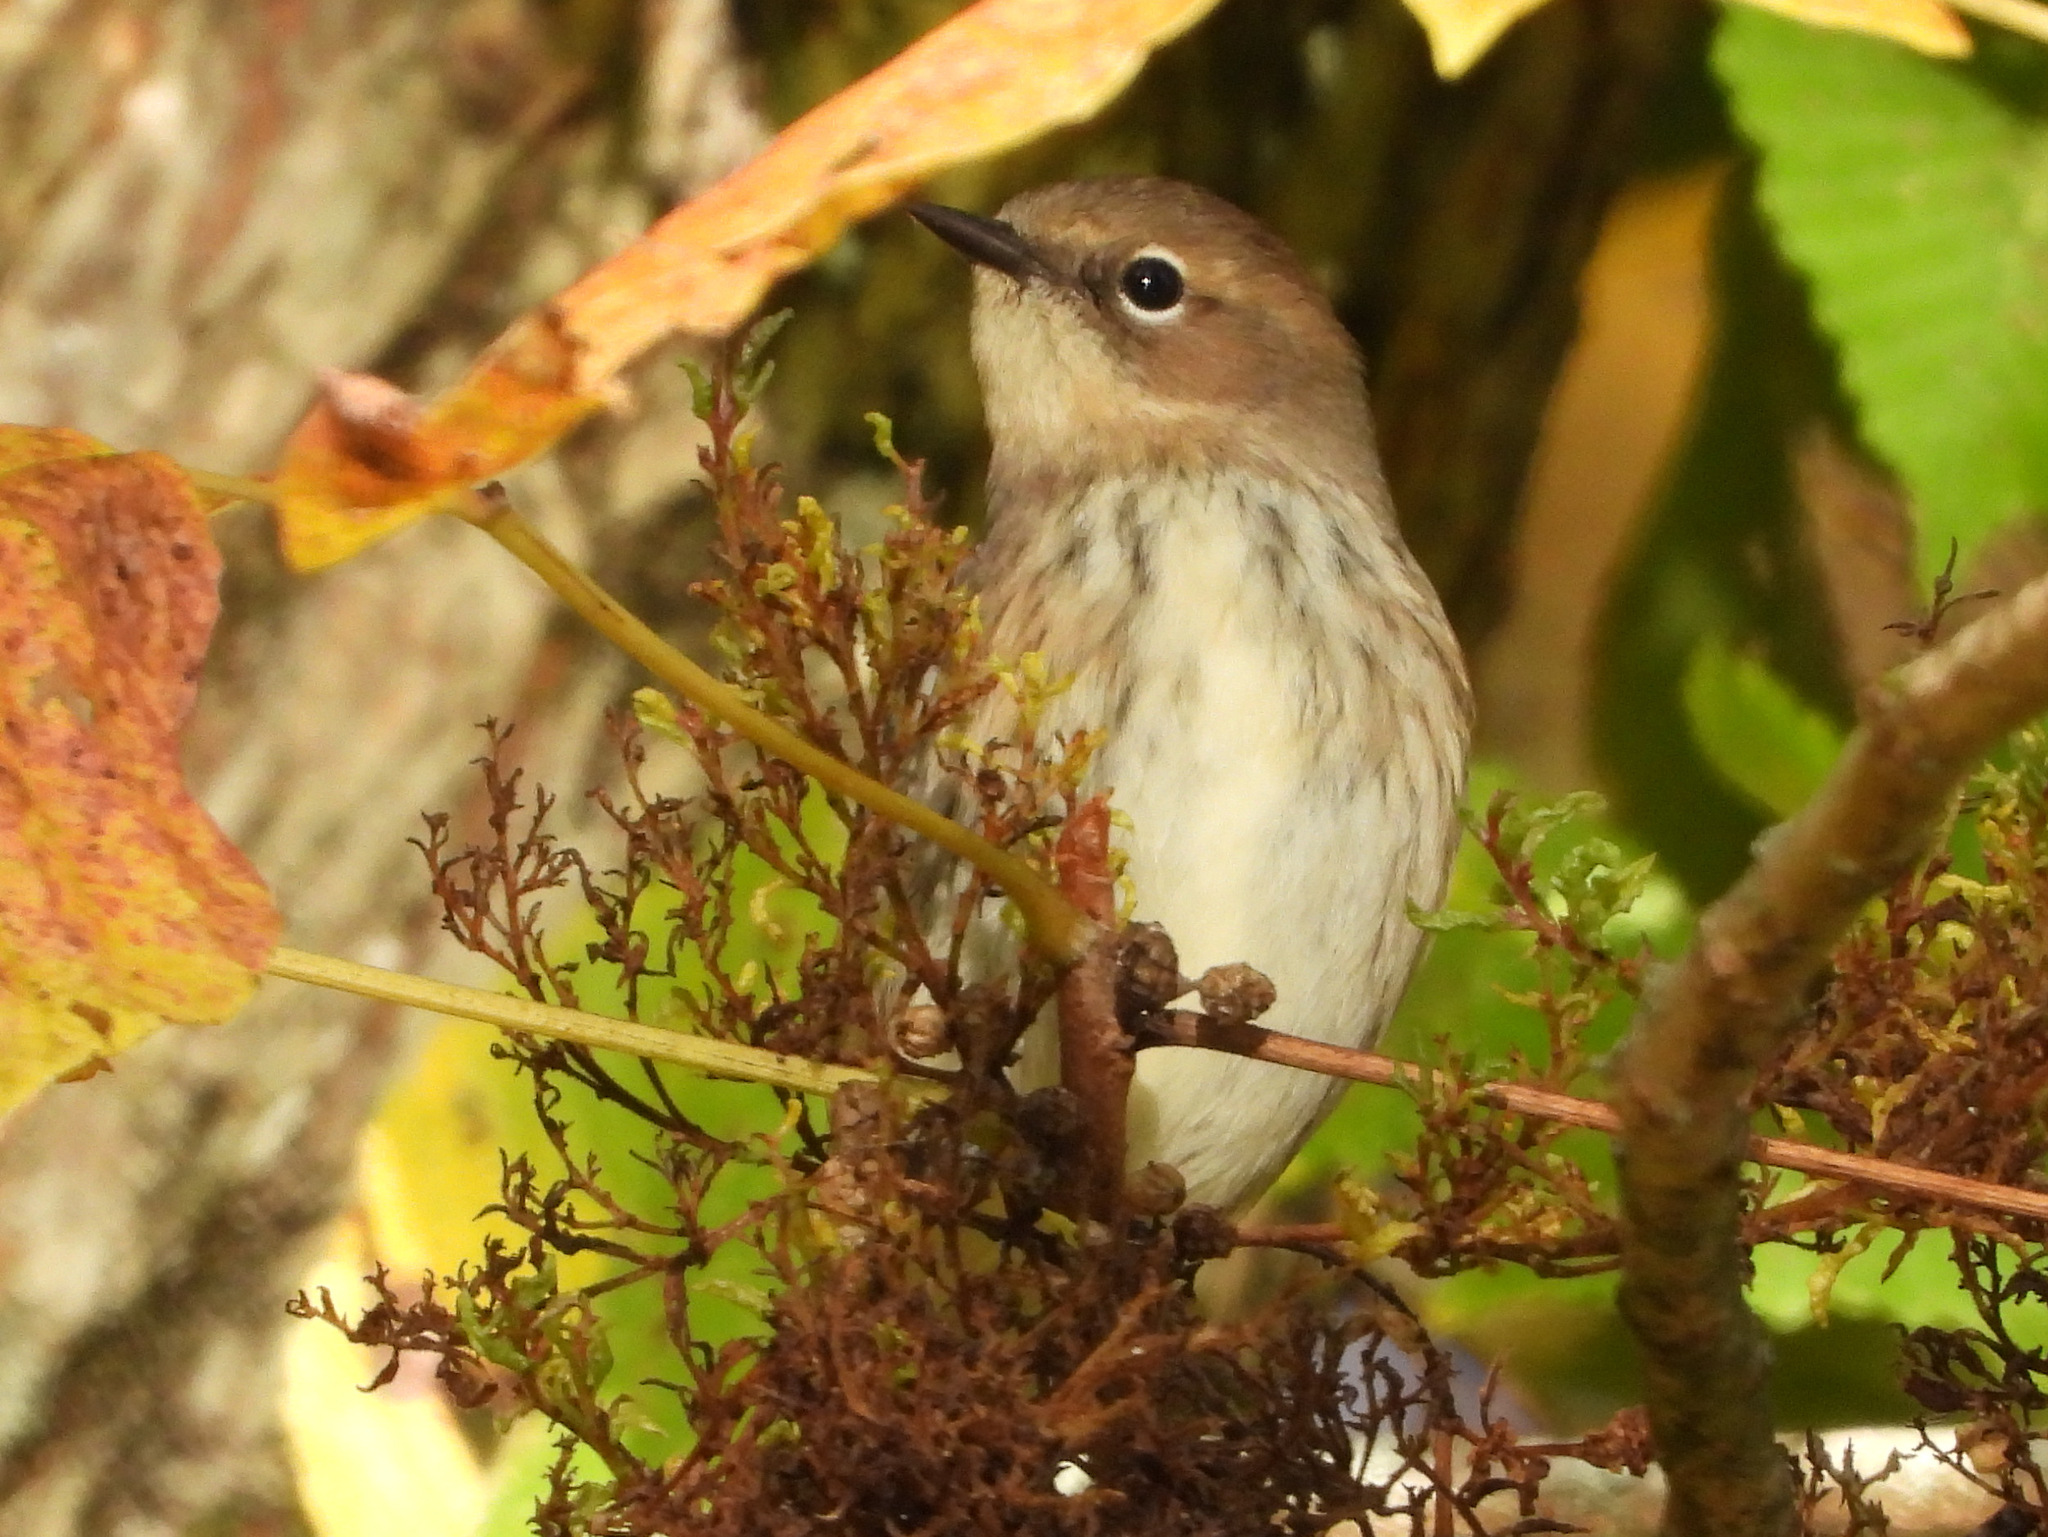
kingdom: Animalia
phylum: Chordata
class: Aves
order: Passeriformes
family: Parulidae
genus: Setophaga
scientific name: Setophaga coronata
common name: Myrtle warbler
